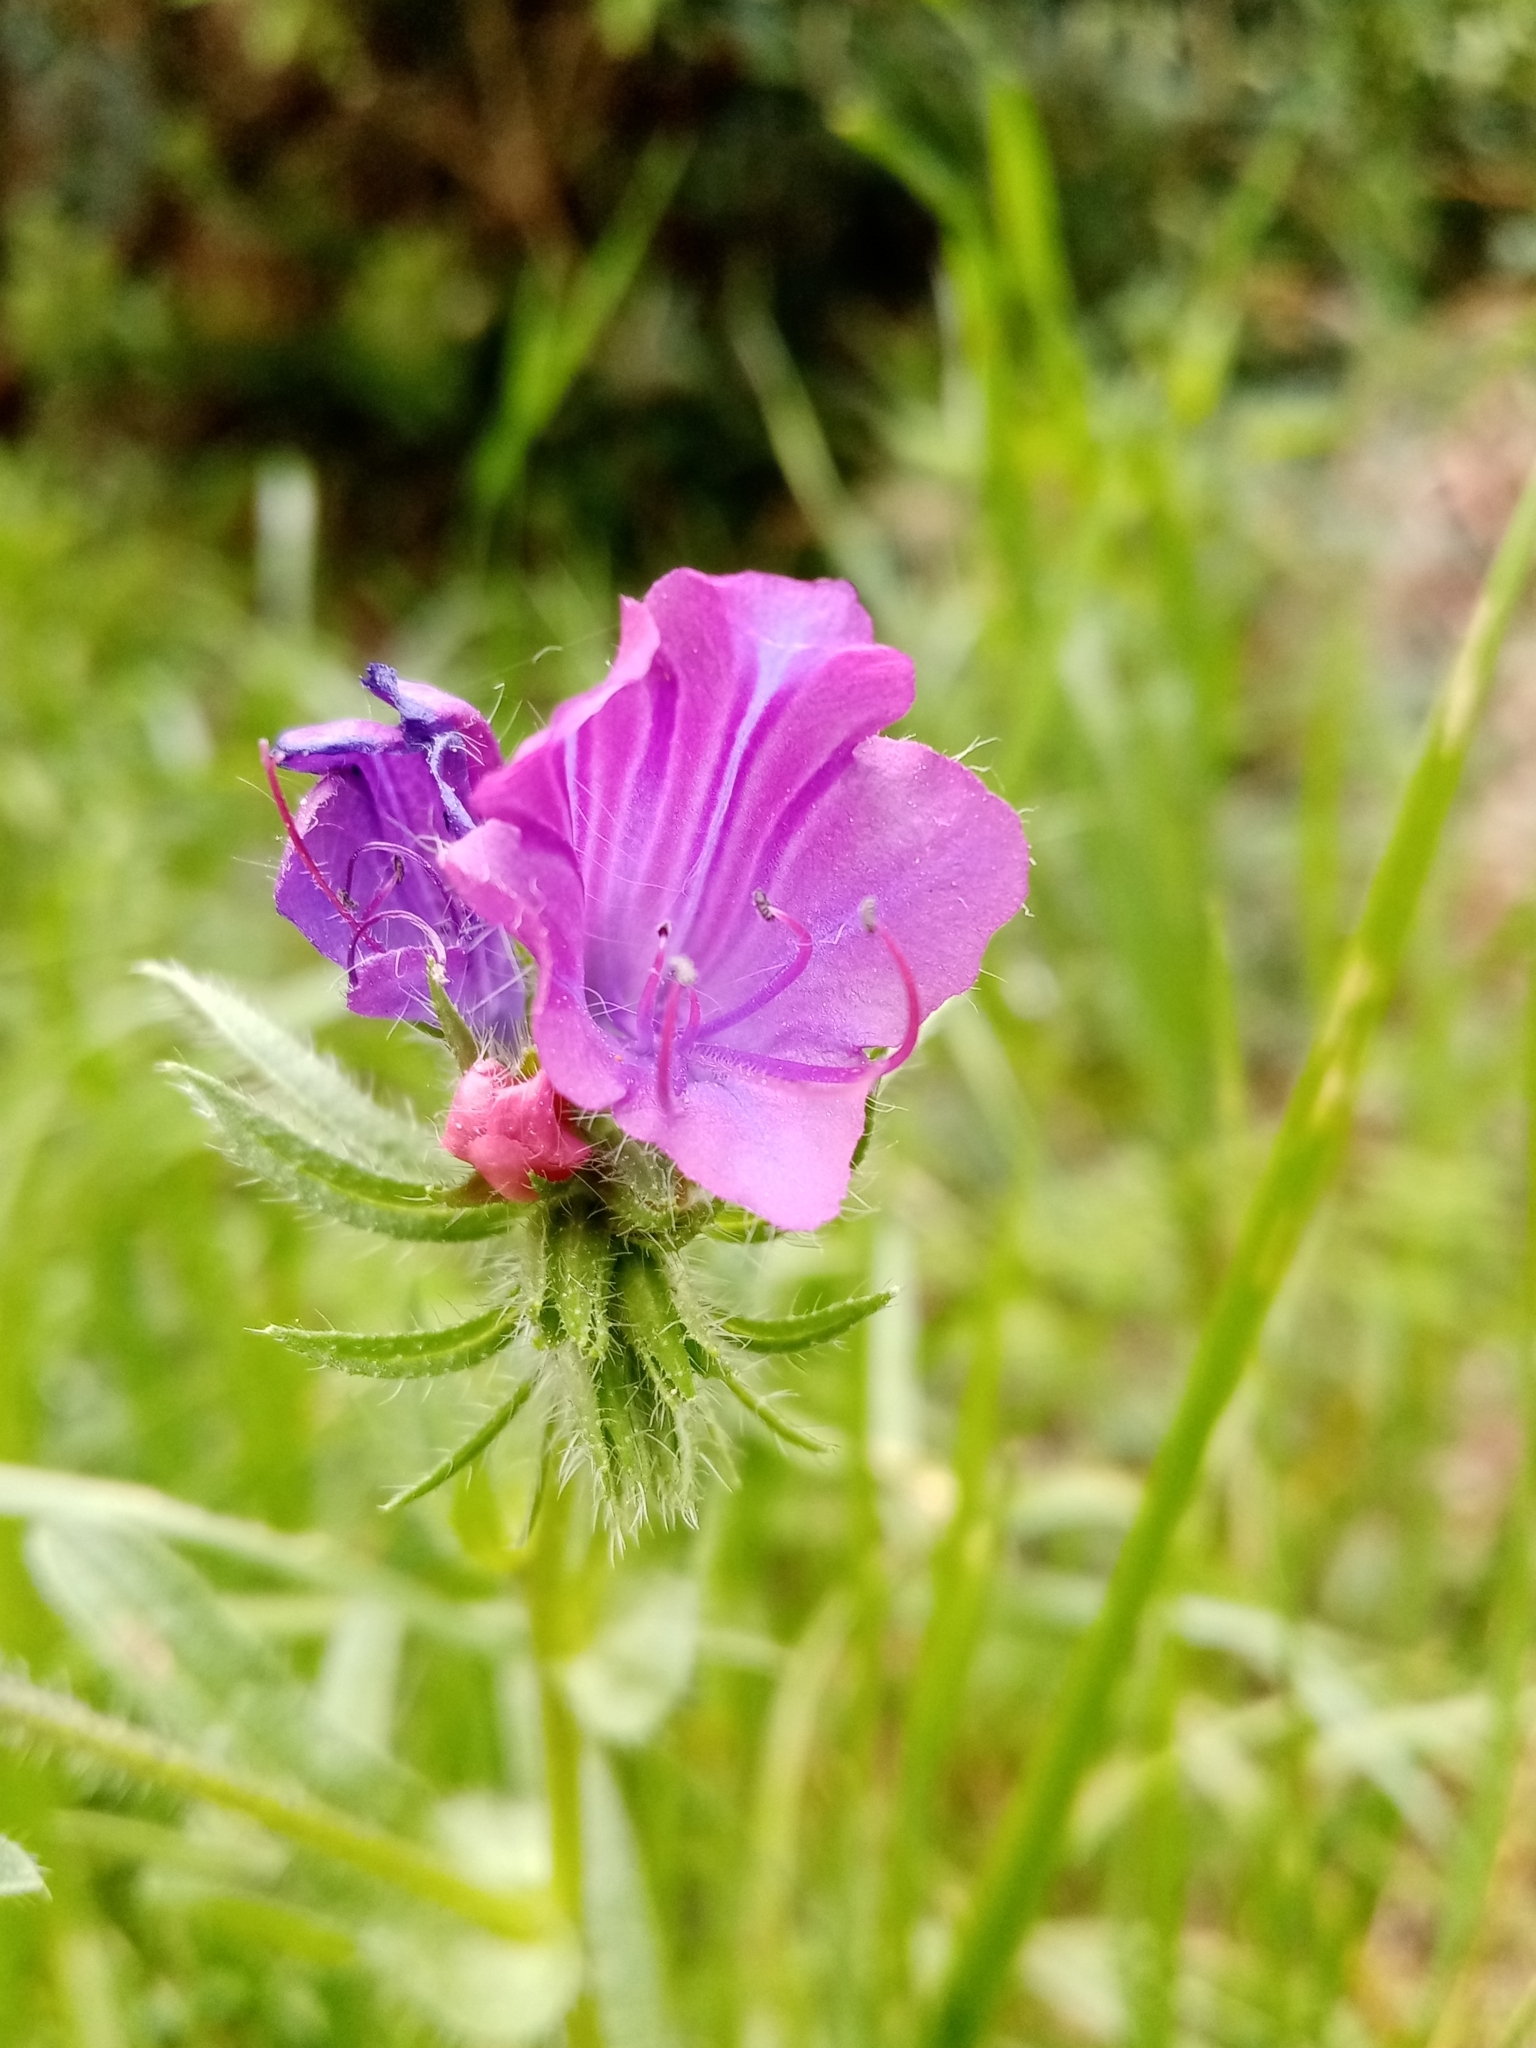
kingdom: Plantae
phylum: Tracheophyta
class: Magnoliopsida
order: Boraginales
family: Boraginaceae
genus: Echium
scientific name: Echium plantagineum
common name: Purple viper's-bugloss
